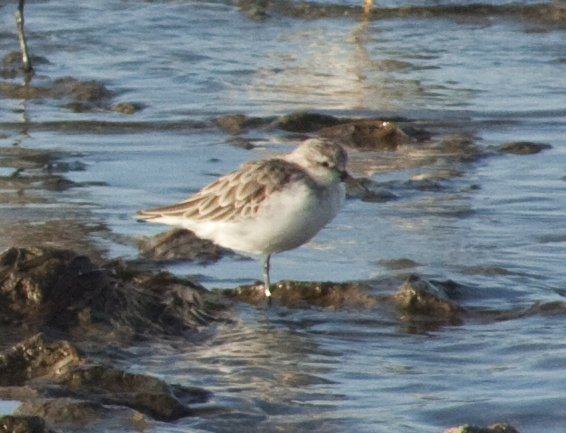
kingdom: Animalia
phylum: Chordata
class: Aves
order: Charadriiformes
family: Scolopacidae
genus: Calidris
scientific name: Calidris ruficollis
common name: Red-necked stint
